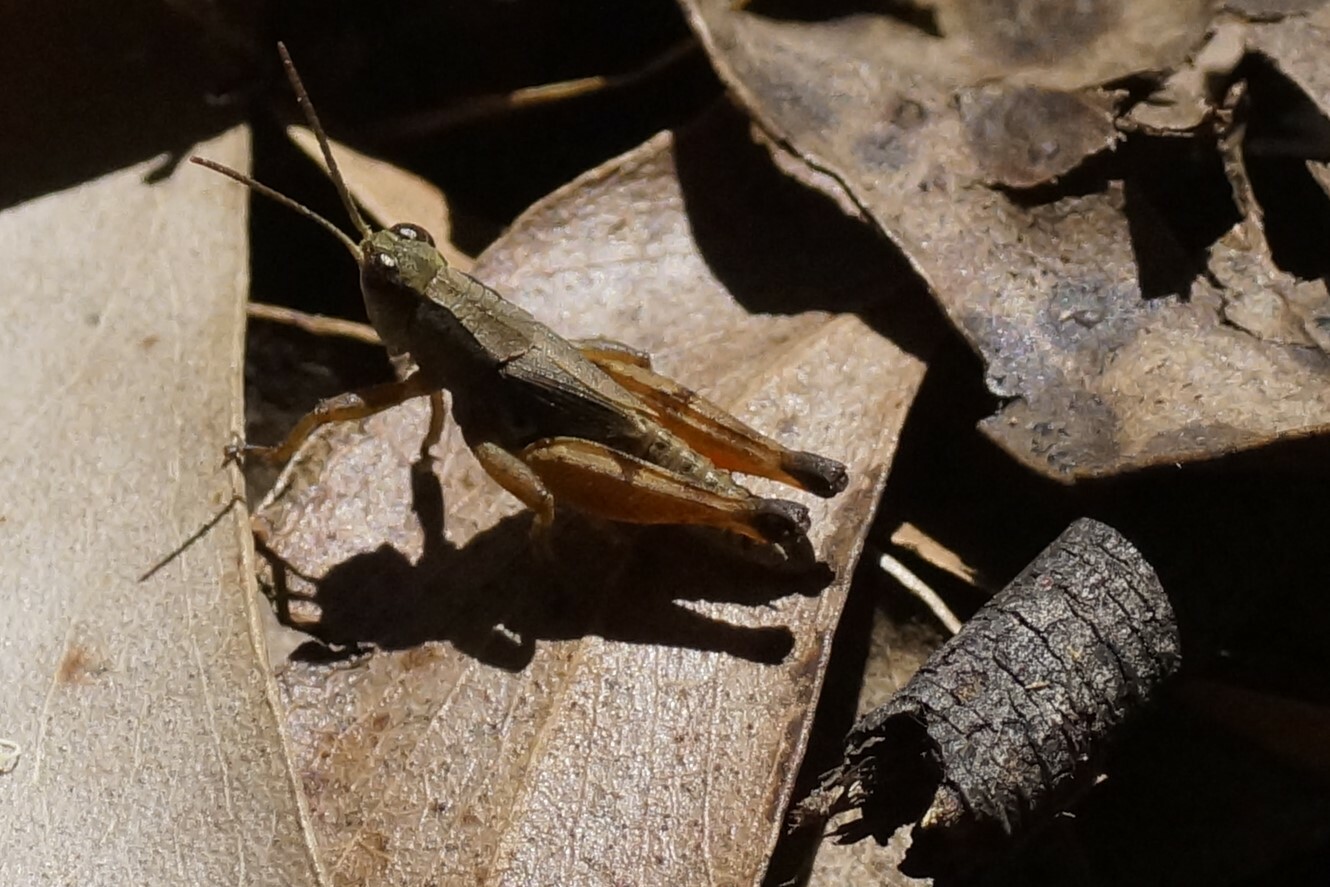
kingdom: Animalia
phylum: Arthropoda
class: Insecta
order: Orthoptera
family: Acrididae
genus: Phaulacridium
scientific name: Phaulacridium vittatum
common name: Wingless grasshopper
